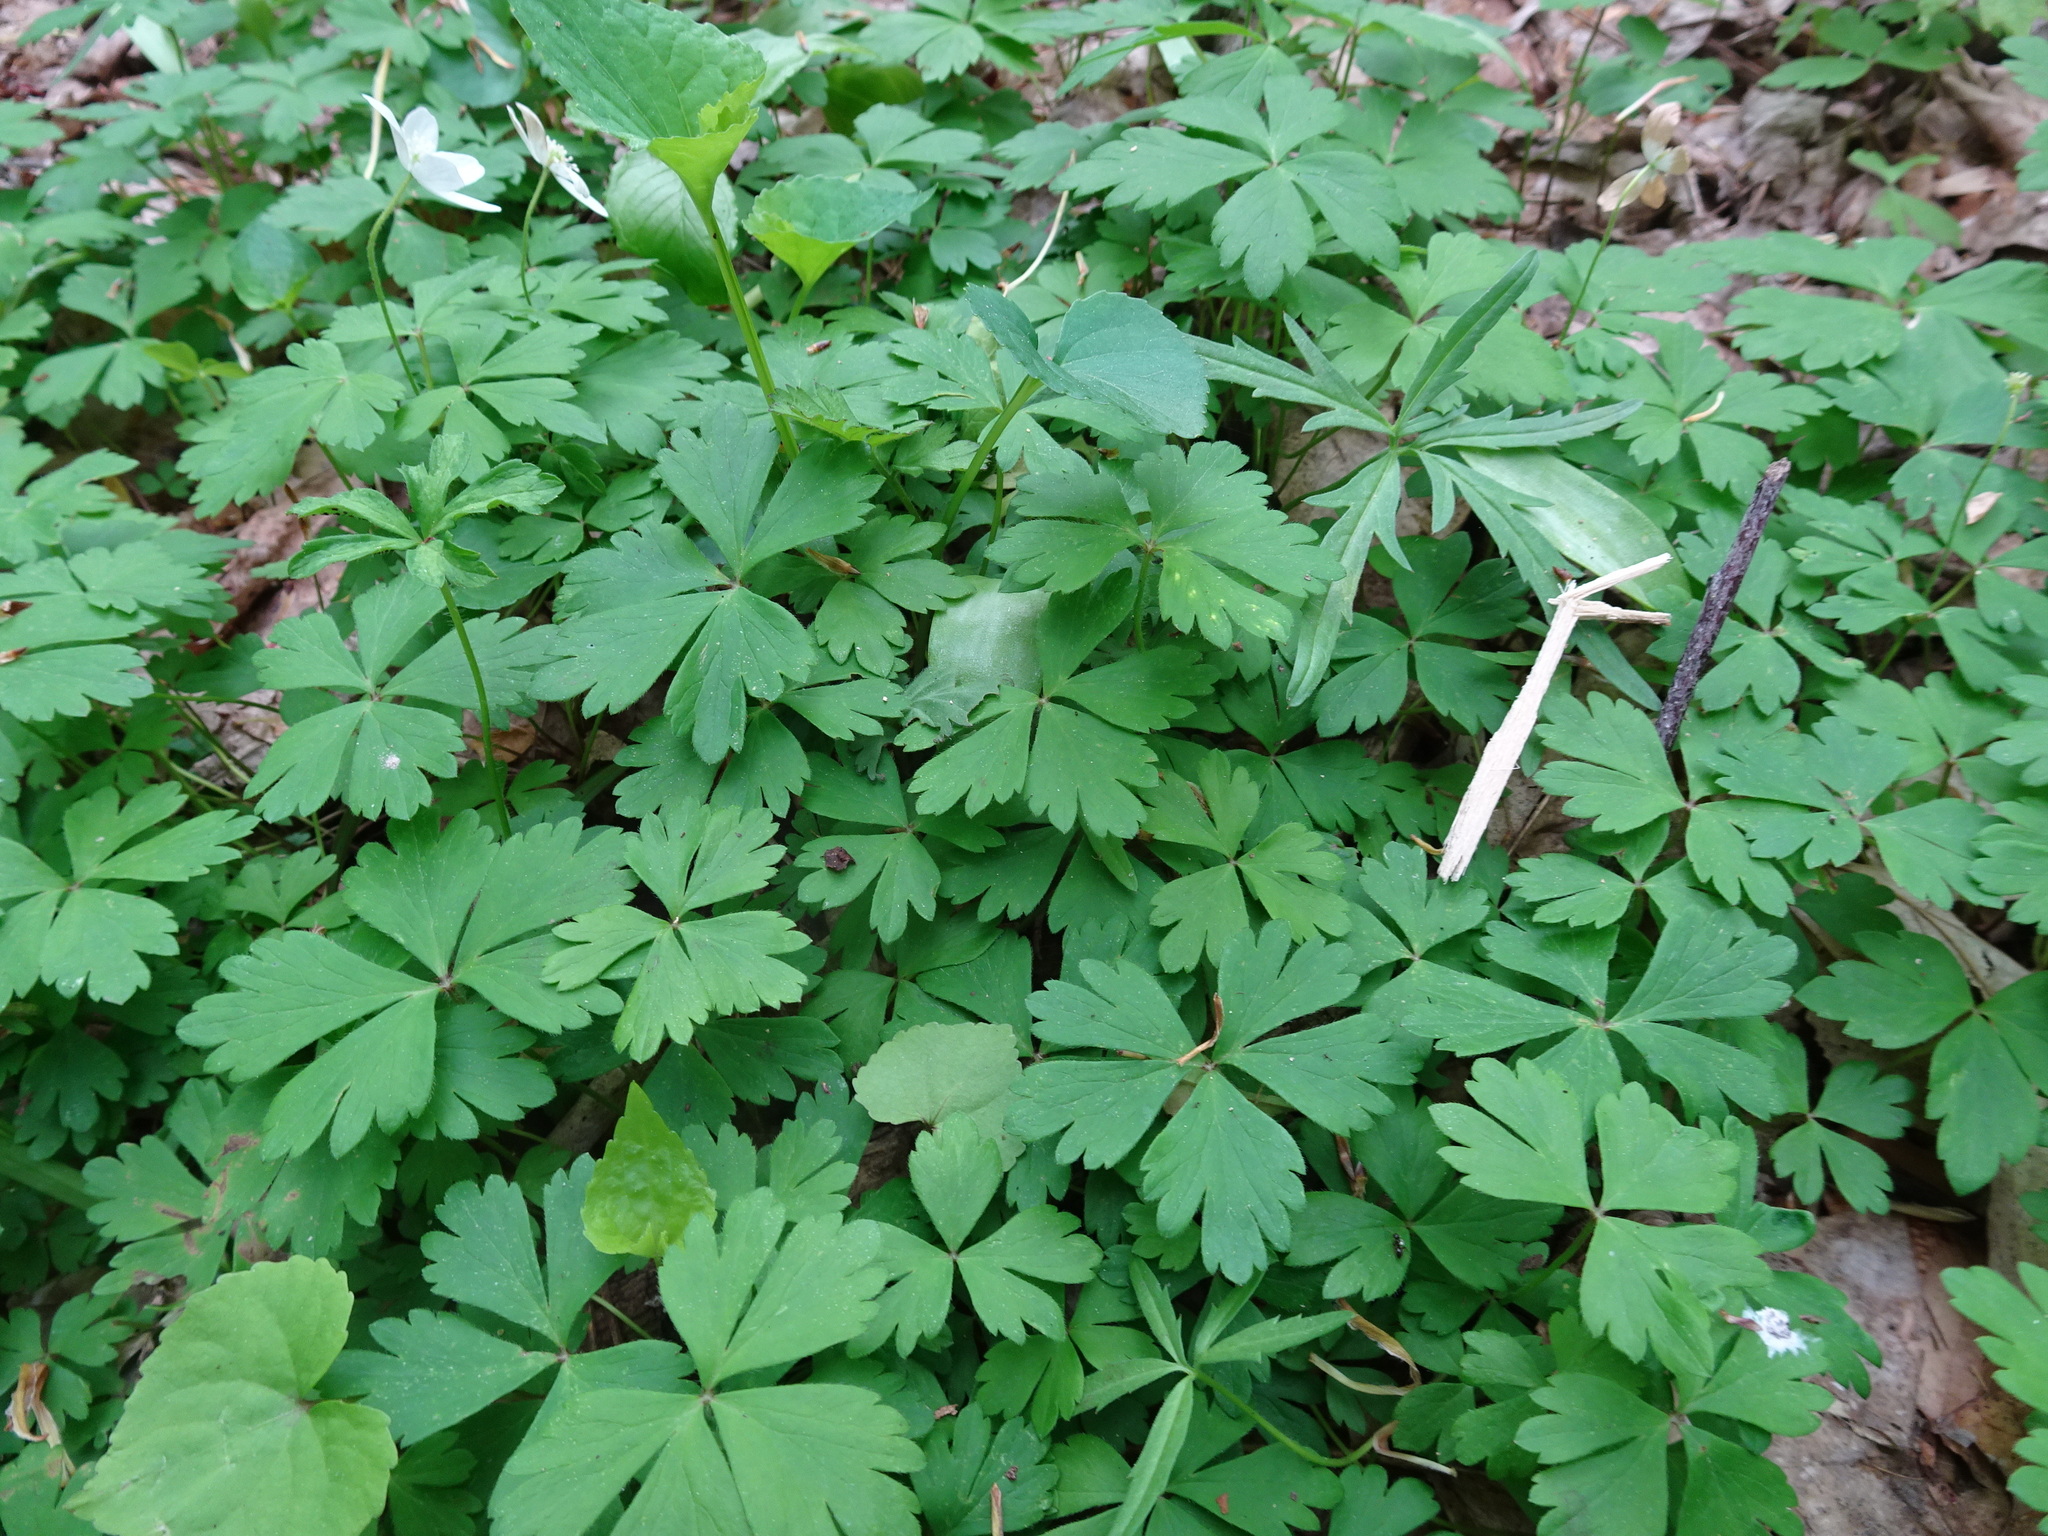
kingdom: Plantae
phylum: Tracheophyta
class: Magnoliopsida
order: Ranunculales
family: Ranunculaceae
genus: Anemone
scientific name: Anemone quinquefolia
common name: Wood anemone
